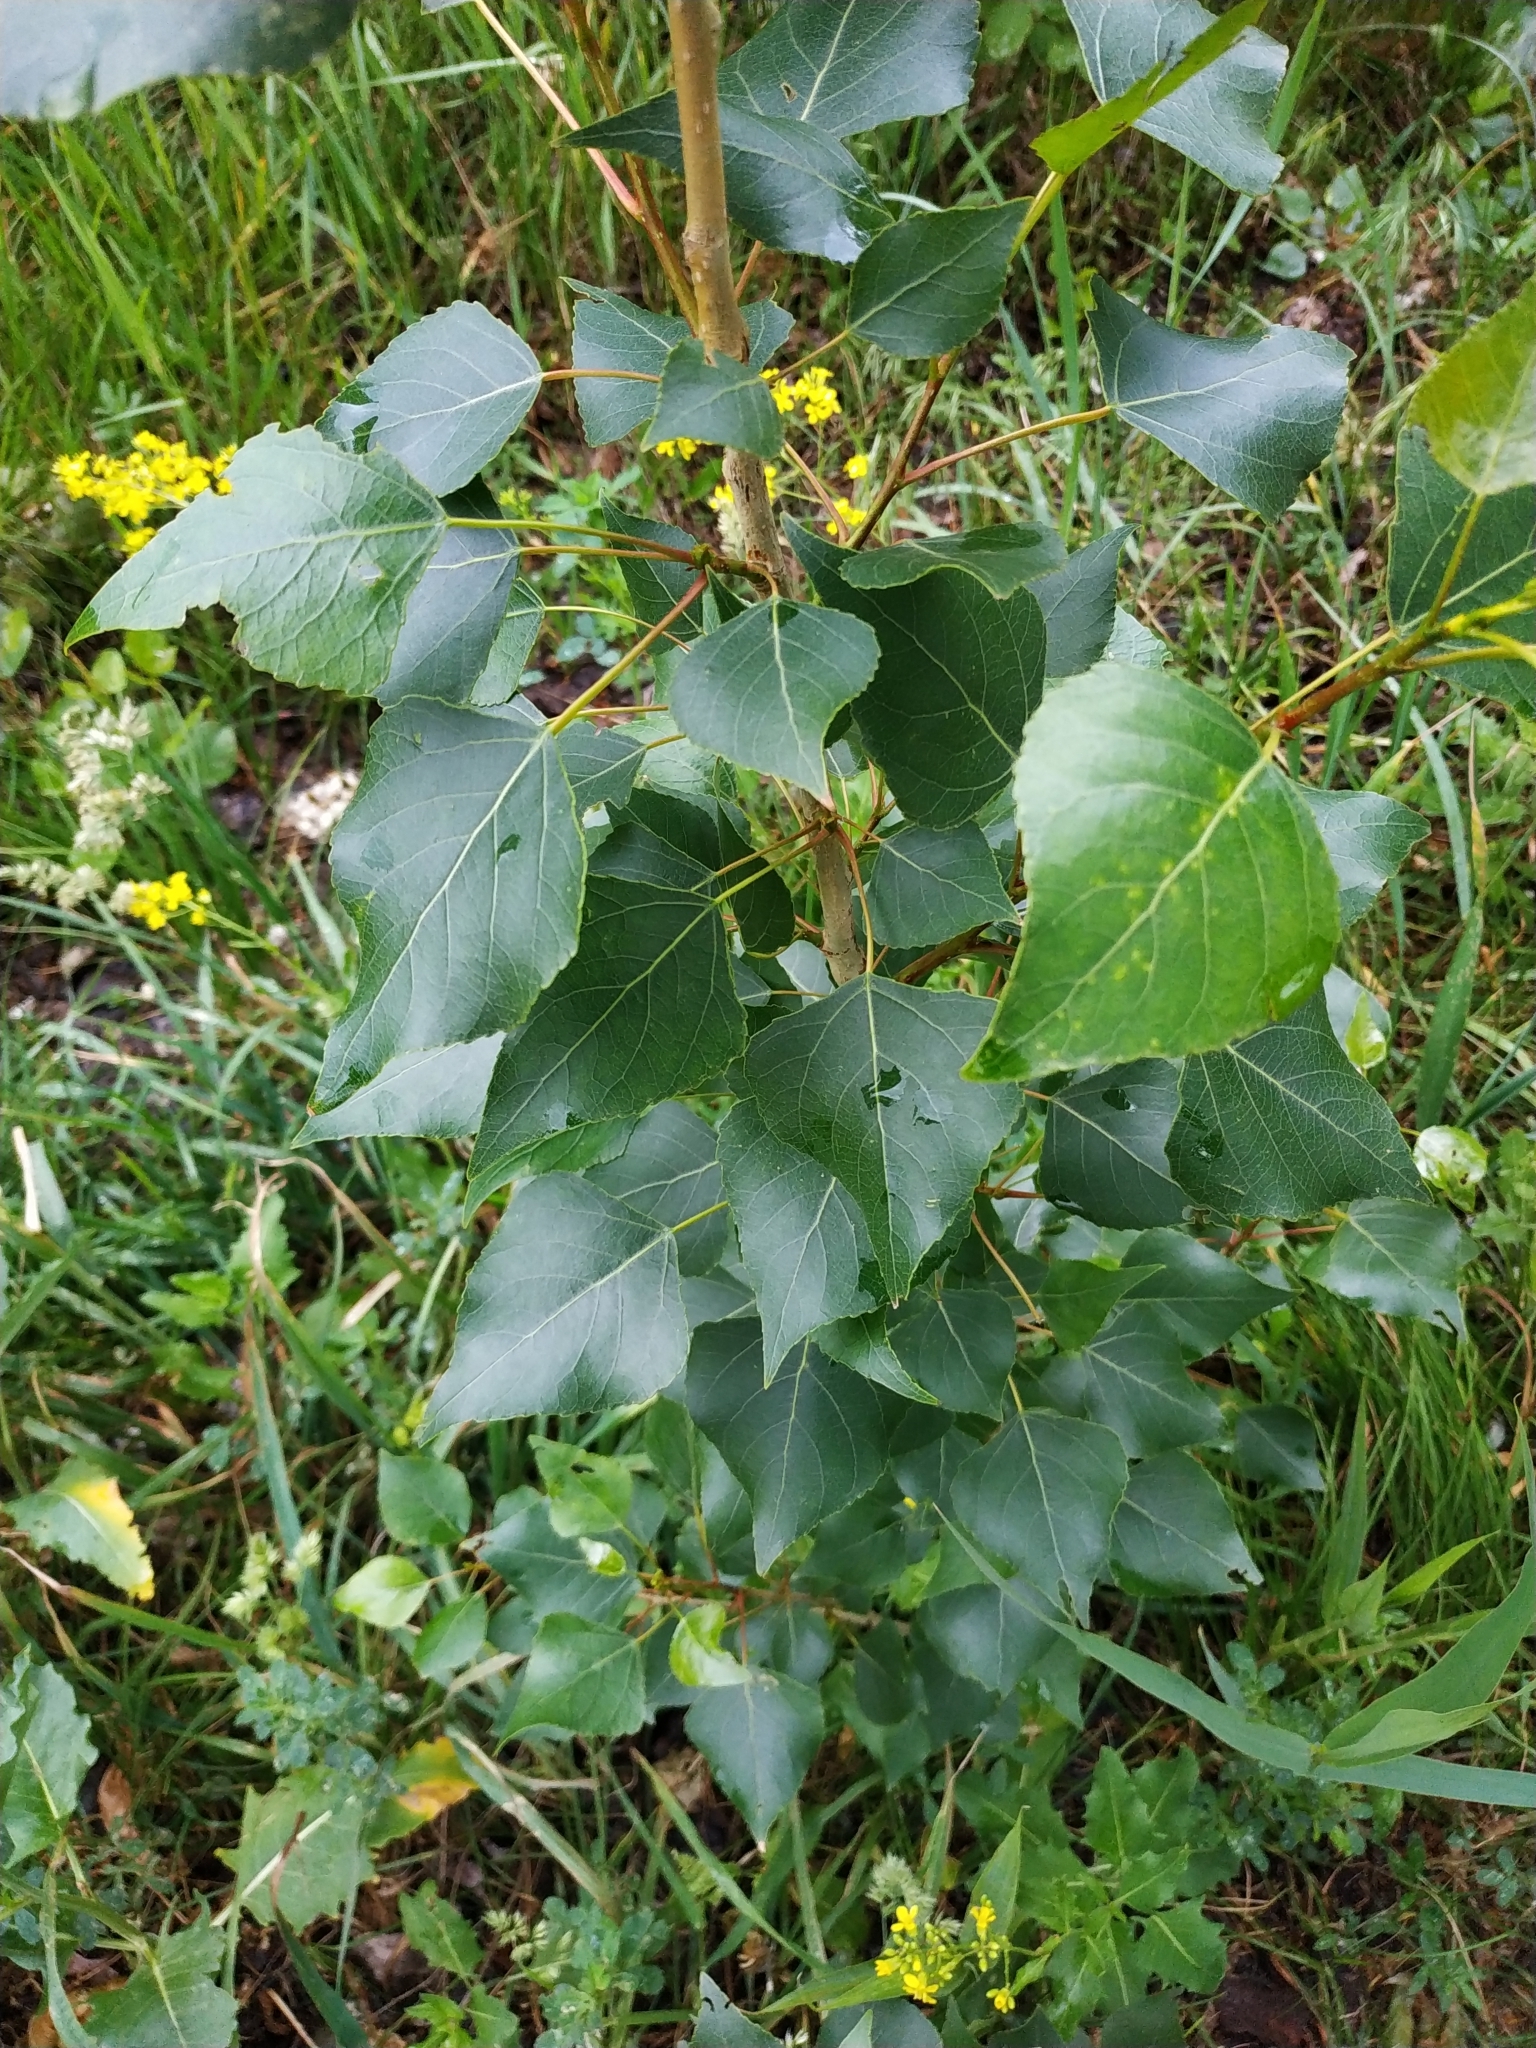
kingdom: Plantae
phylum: Tracheophyta
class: Magnoliopsida
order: Malpighiales
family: Salicaceae
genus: Populus
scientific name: Populus nigra
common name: Black poplar
